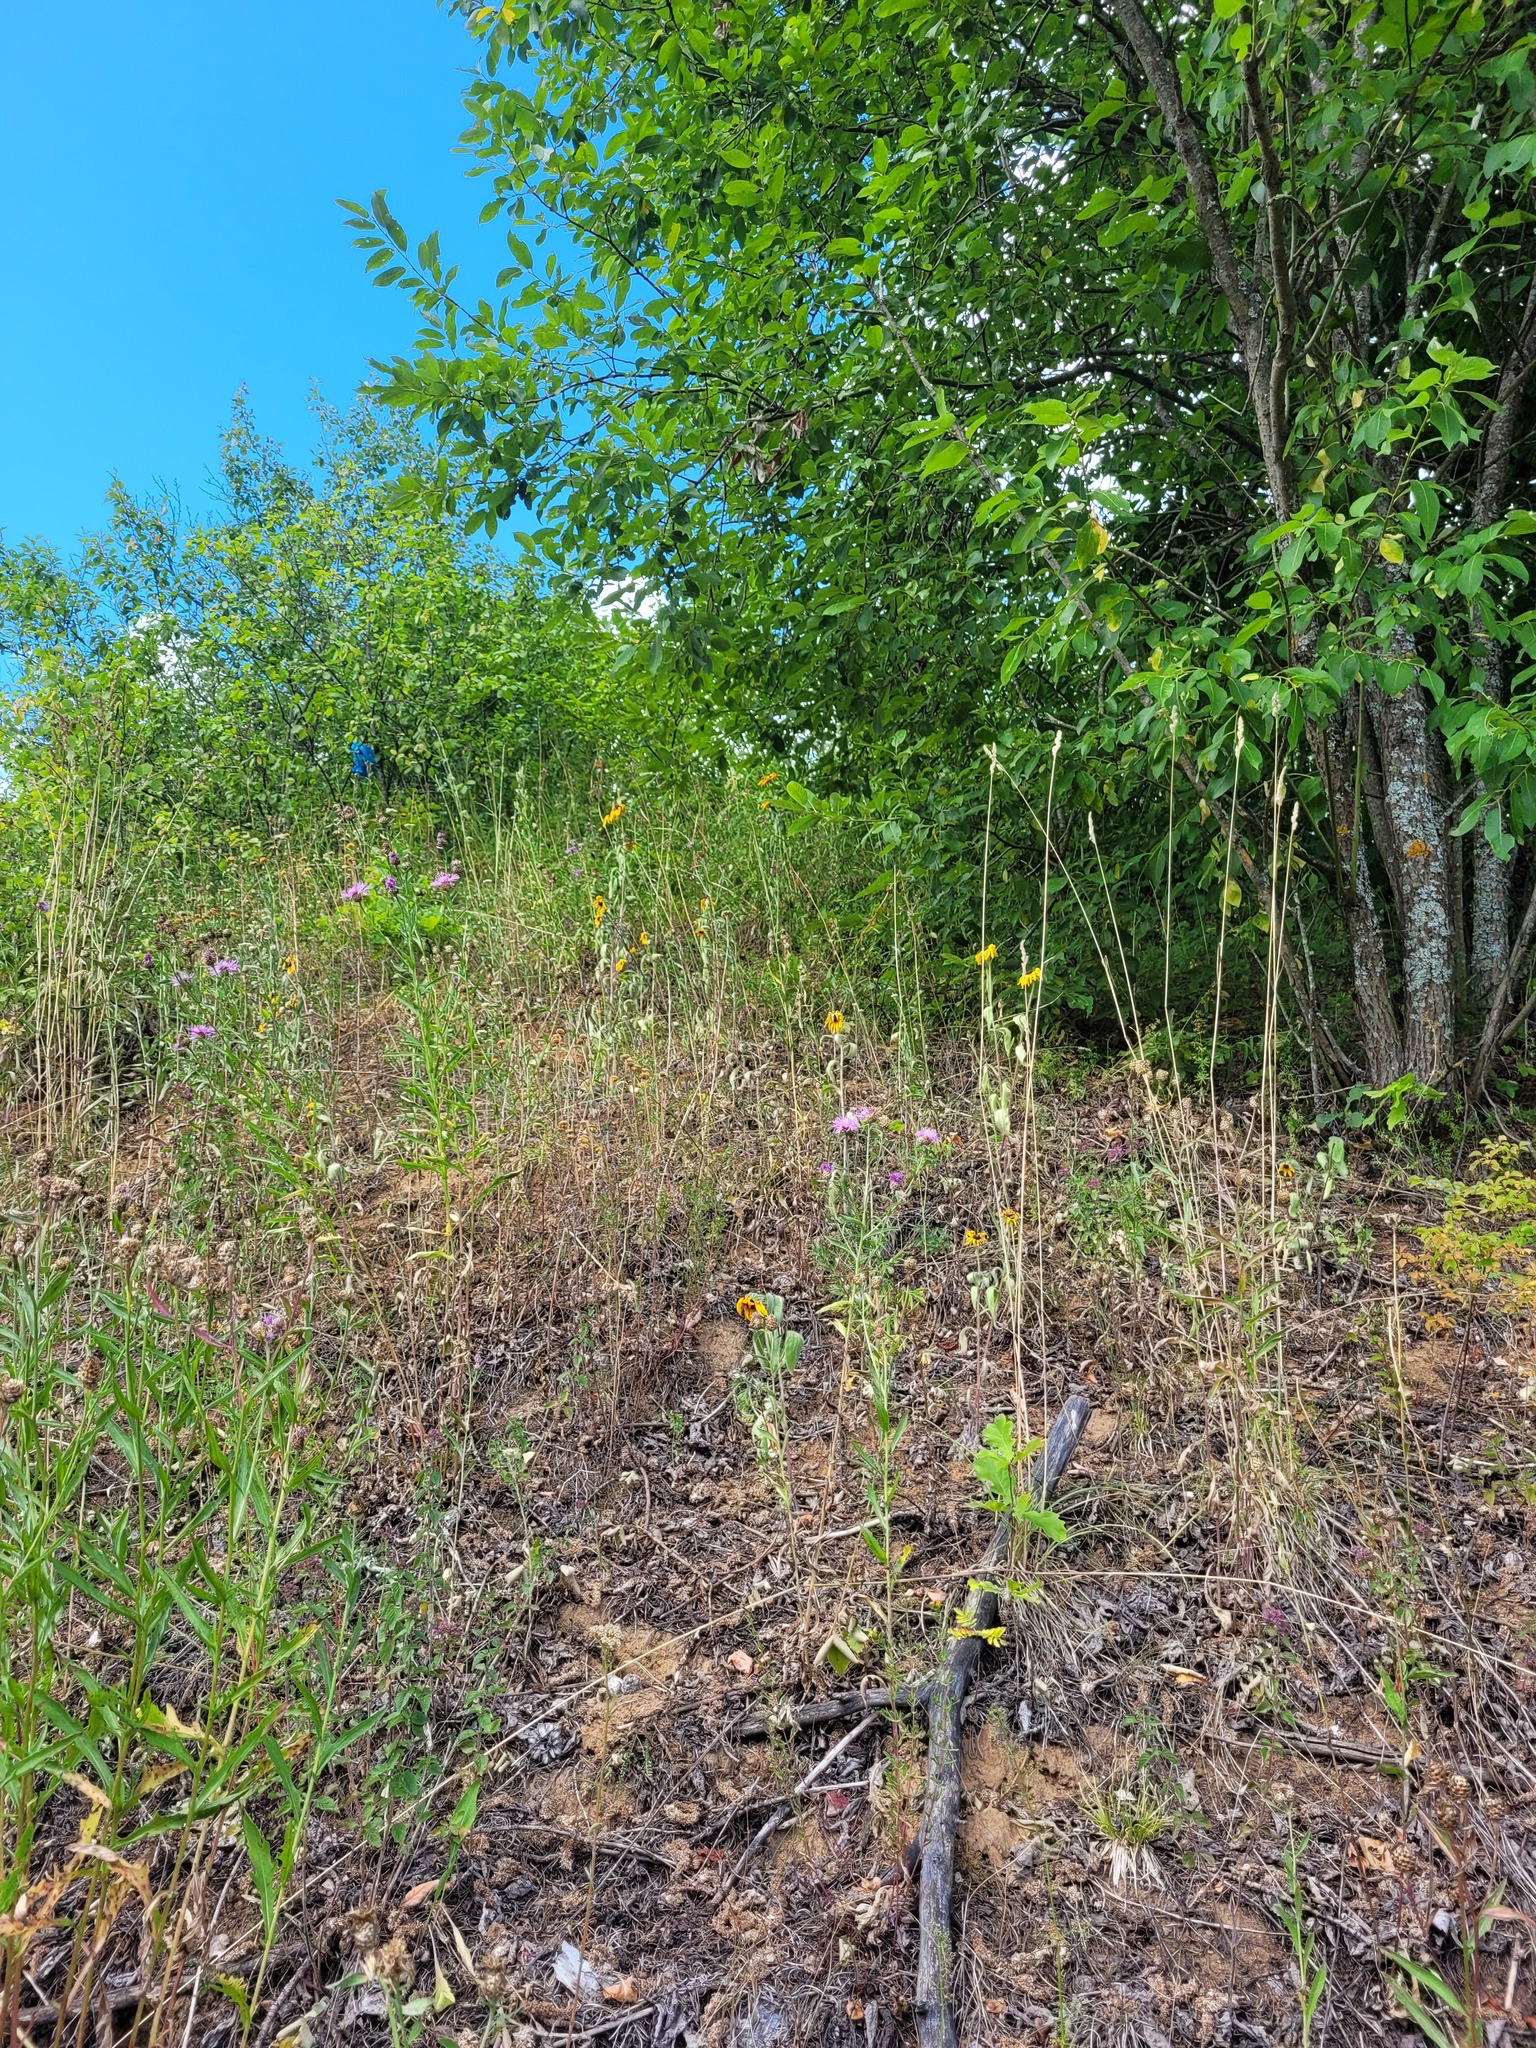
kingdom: Plantae
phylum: Tracheophyta
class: Magnoliopsida
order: Asterales
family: Asteraceae
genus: Rudbeckia
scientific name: Rudbeckia hirta
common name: Black-eyed-susan
